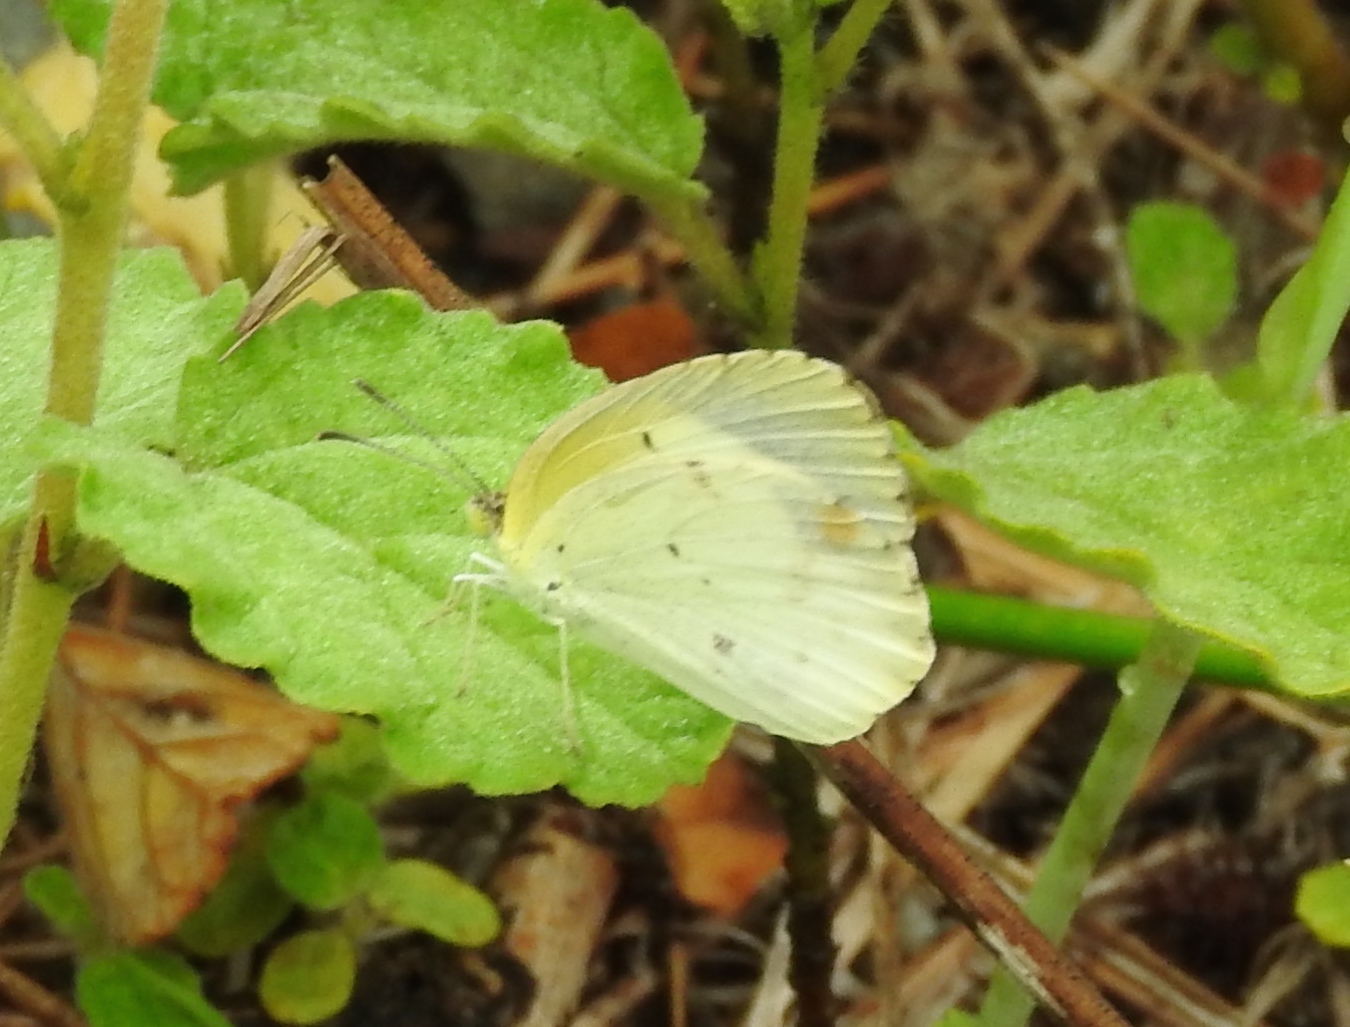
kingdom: Animalia
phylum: Arthropoda
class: Insecta
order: Lepidoptera
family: Pieridae
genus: Pyrisitia
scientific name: Pyrisitia lisa
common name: Little yellow
